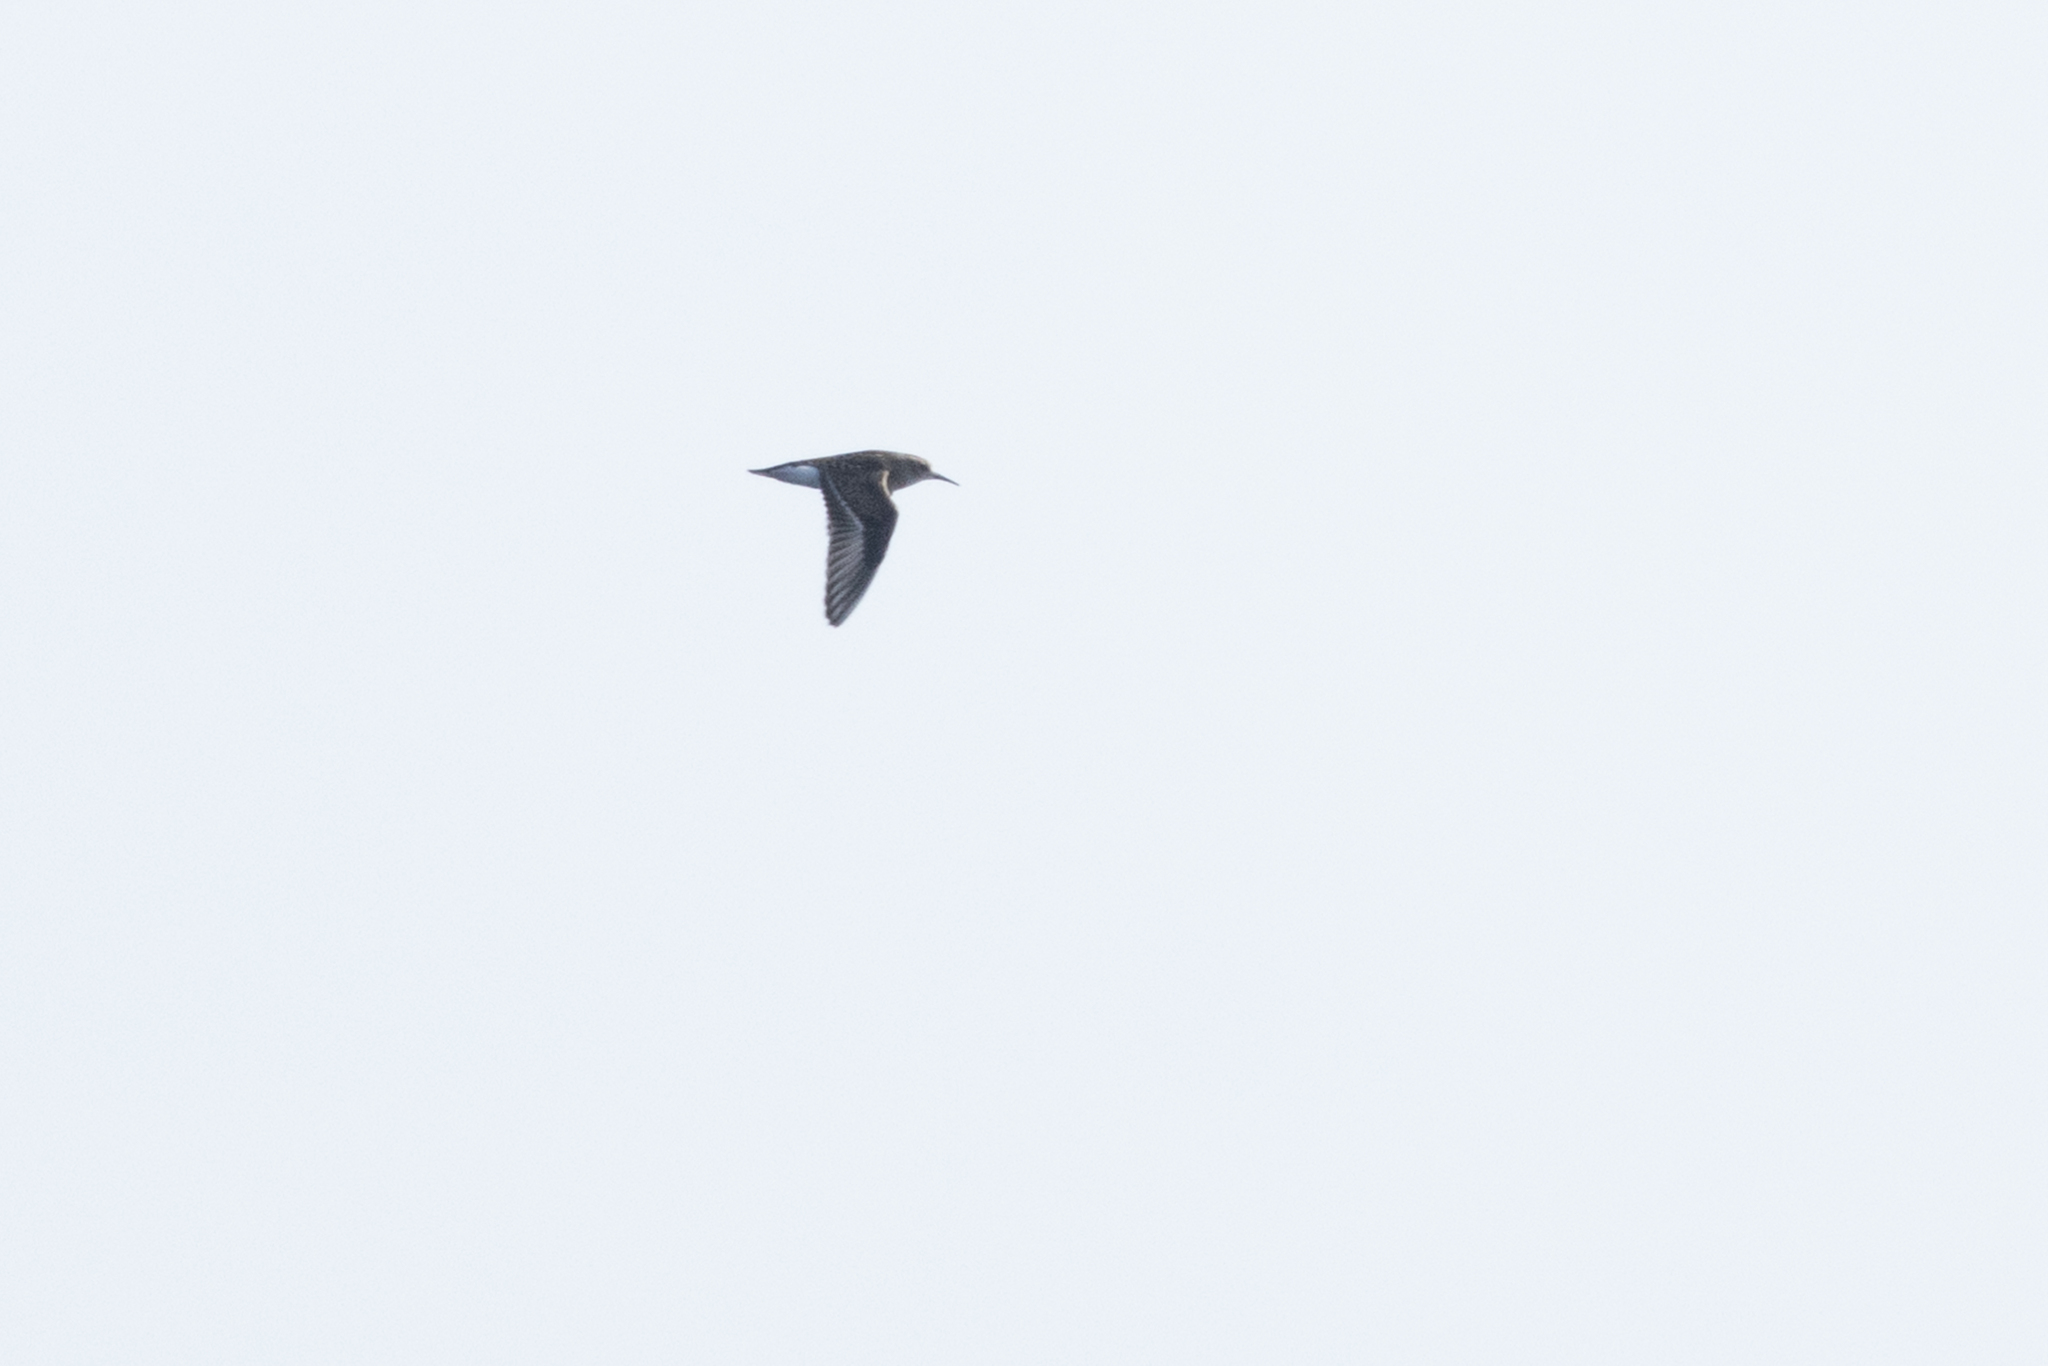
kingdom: Animalia
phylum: Chordata
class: Aves
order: Charadriiformes
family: Scolopacidae
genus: Calidris
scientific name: Calidris minutilla
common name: Least sandpiper
